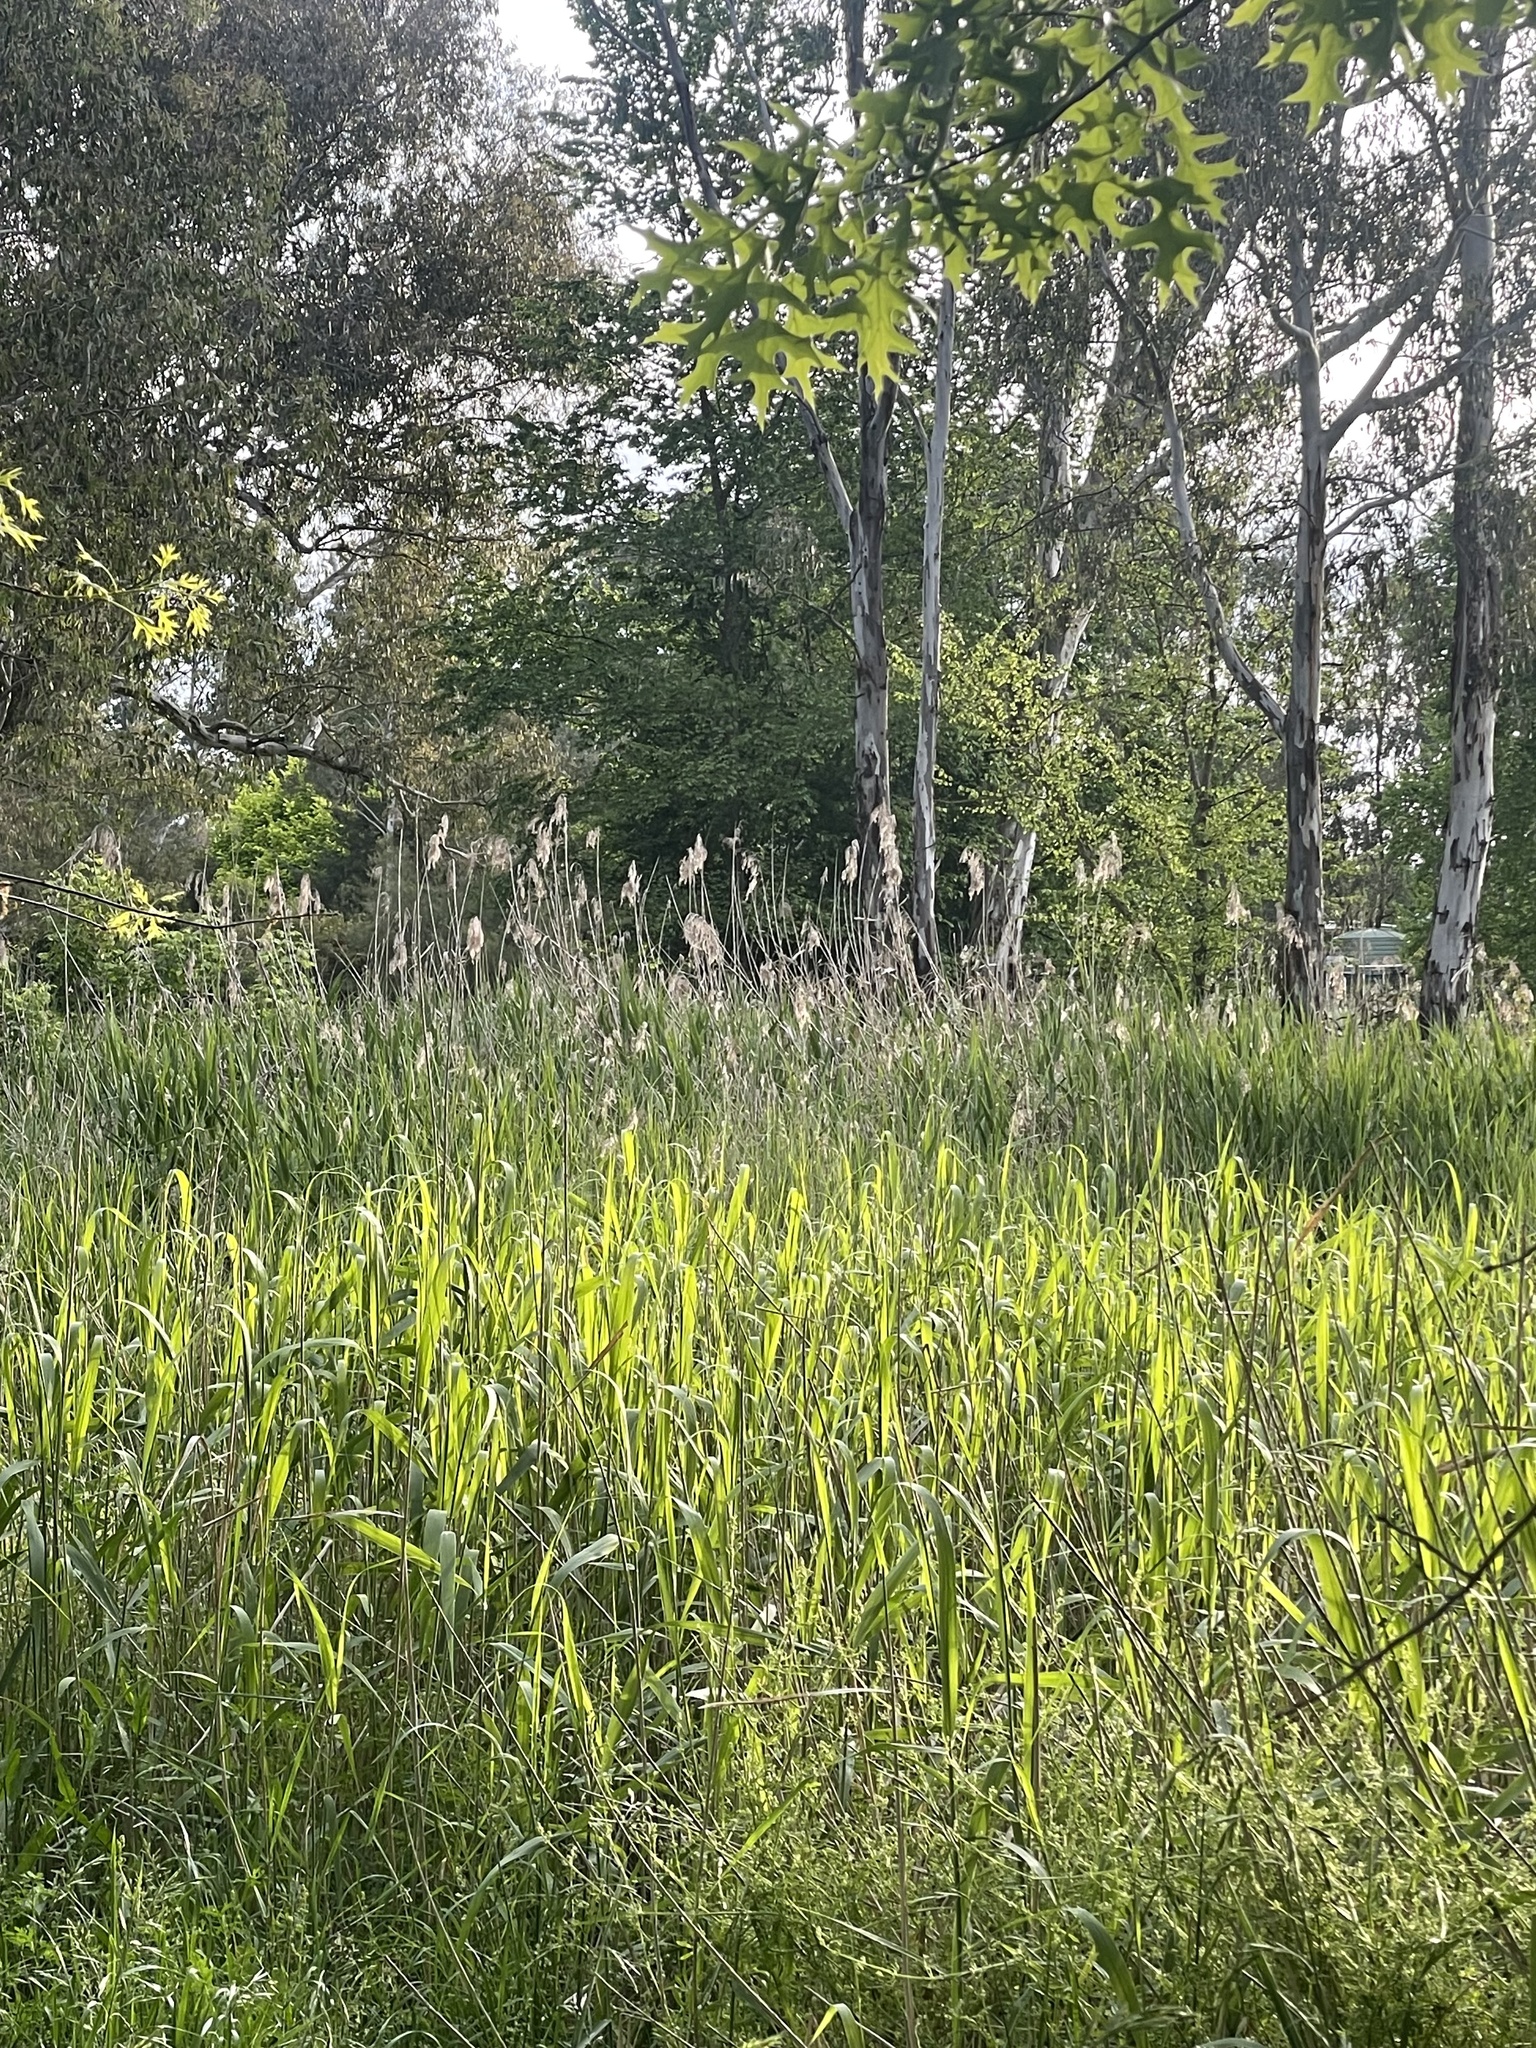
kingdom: Plantae
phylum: Tracheophyta
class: Liliopsida
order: Poales
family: Poaceae
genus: Phragmites
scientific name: Phragmites australis
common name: Common reed
